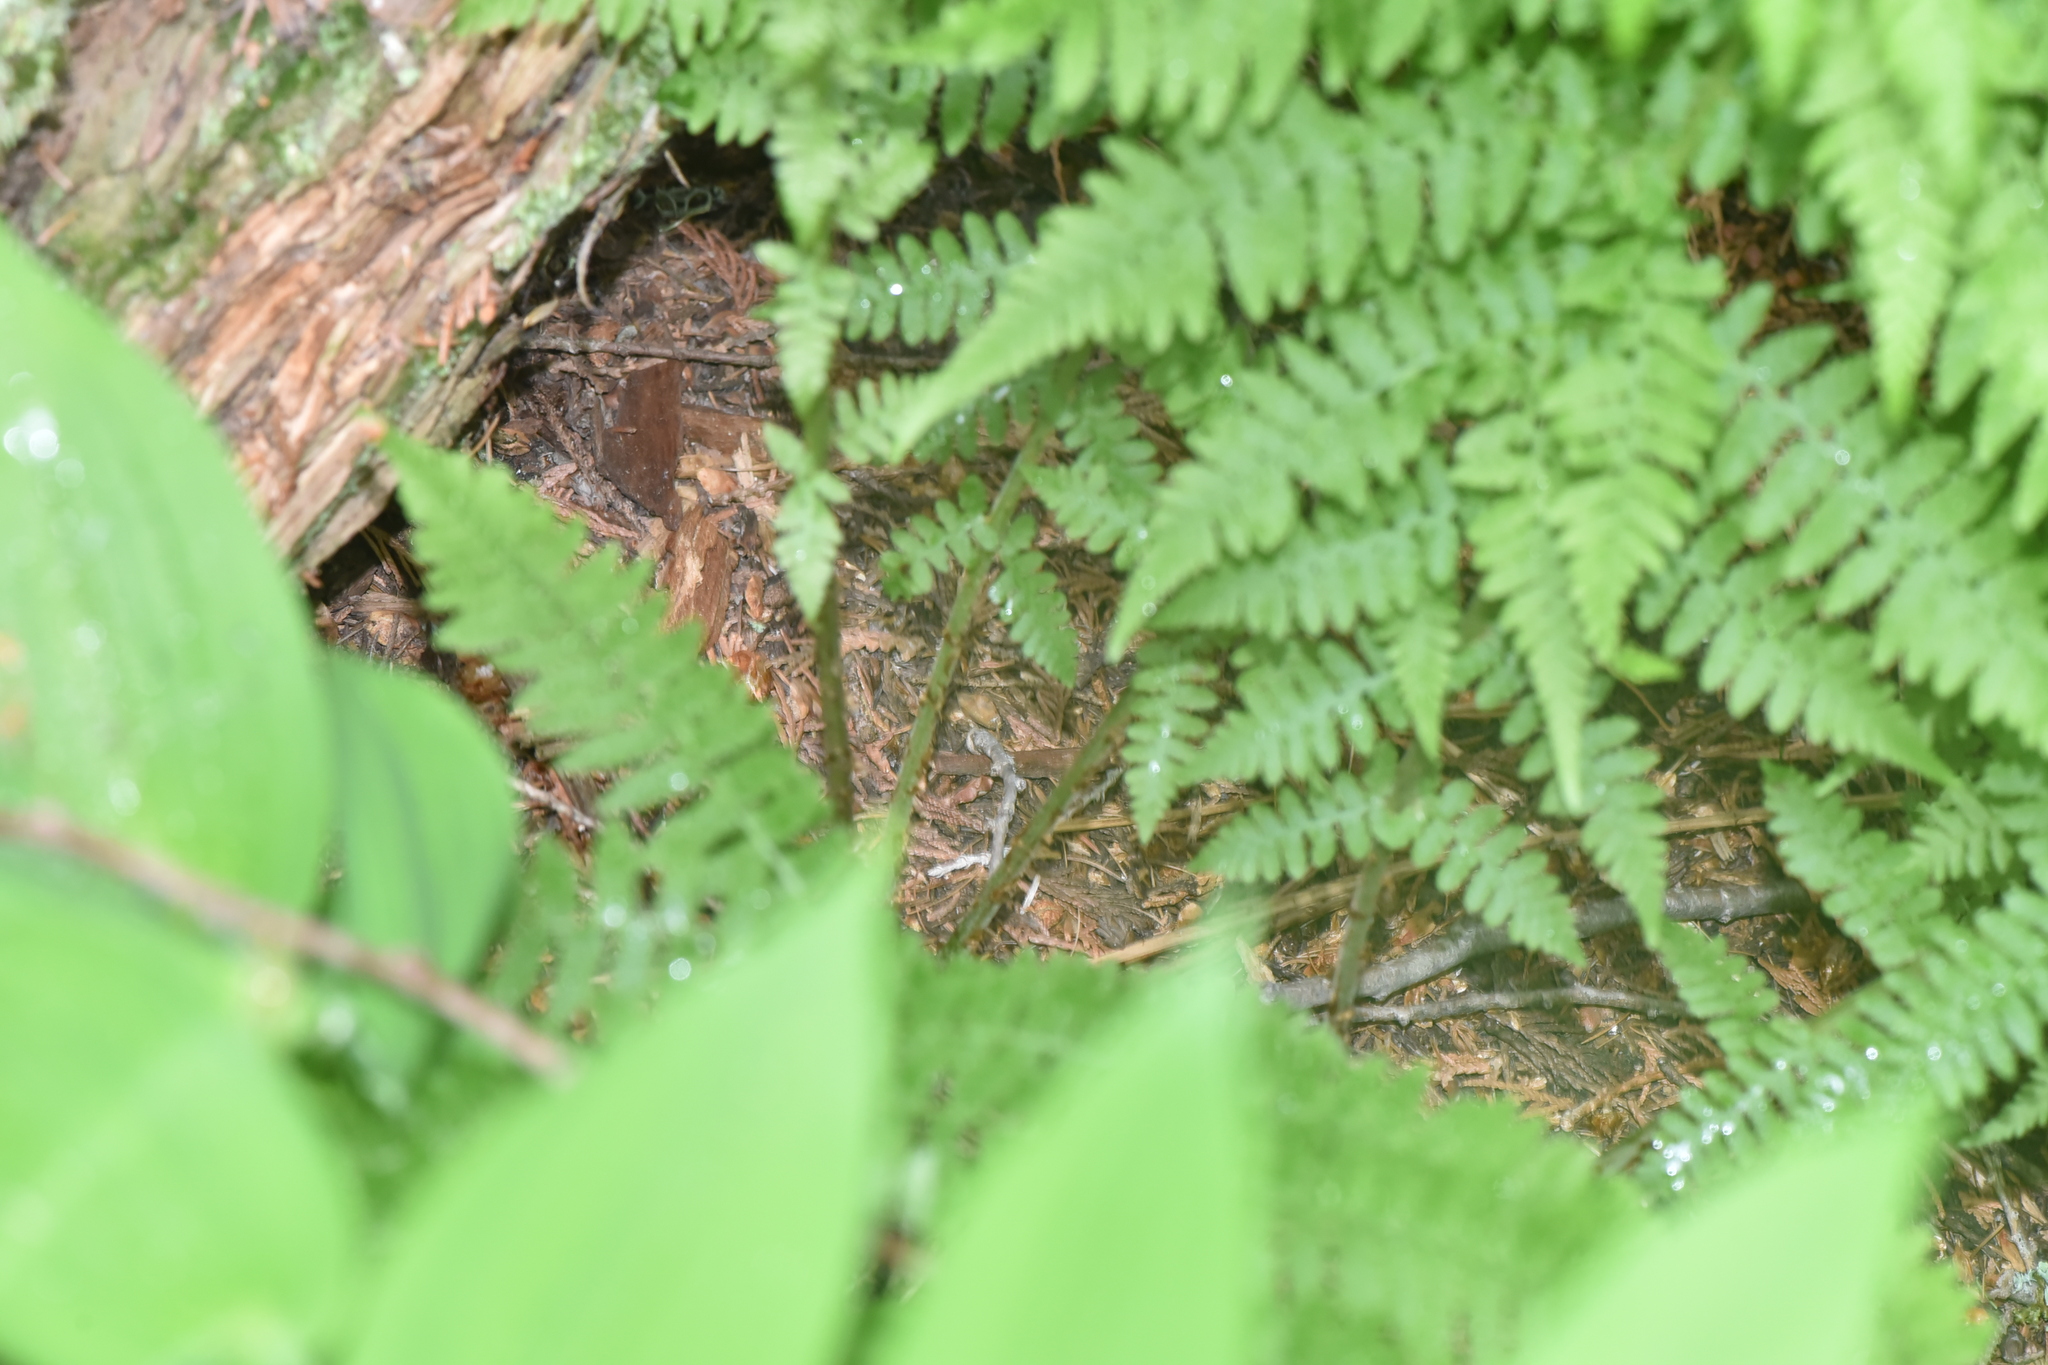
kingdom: Plantae
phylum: Tracheophyta
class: Polypodiopsida
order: Polypodiales
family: Athyriaceae
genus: Athyrium
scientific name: Athyrium filix-femina
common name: Lady fern
